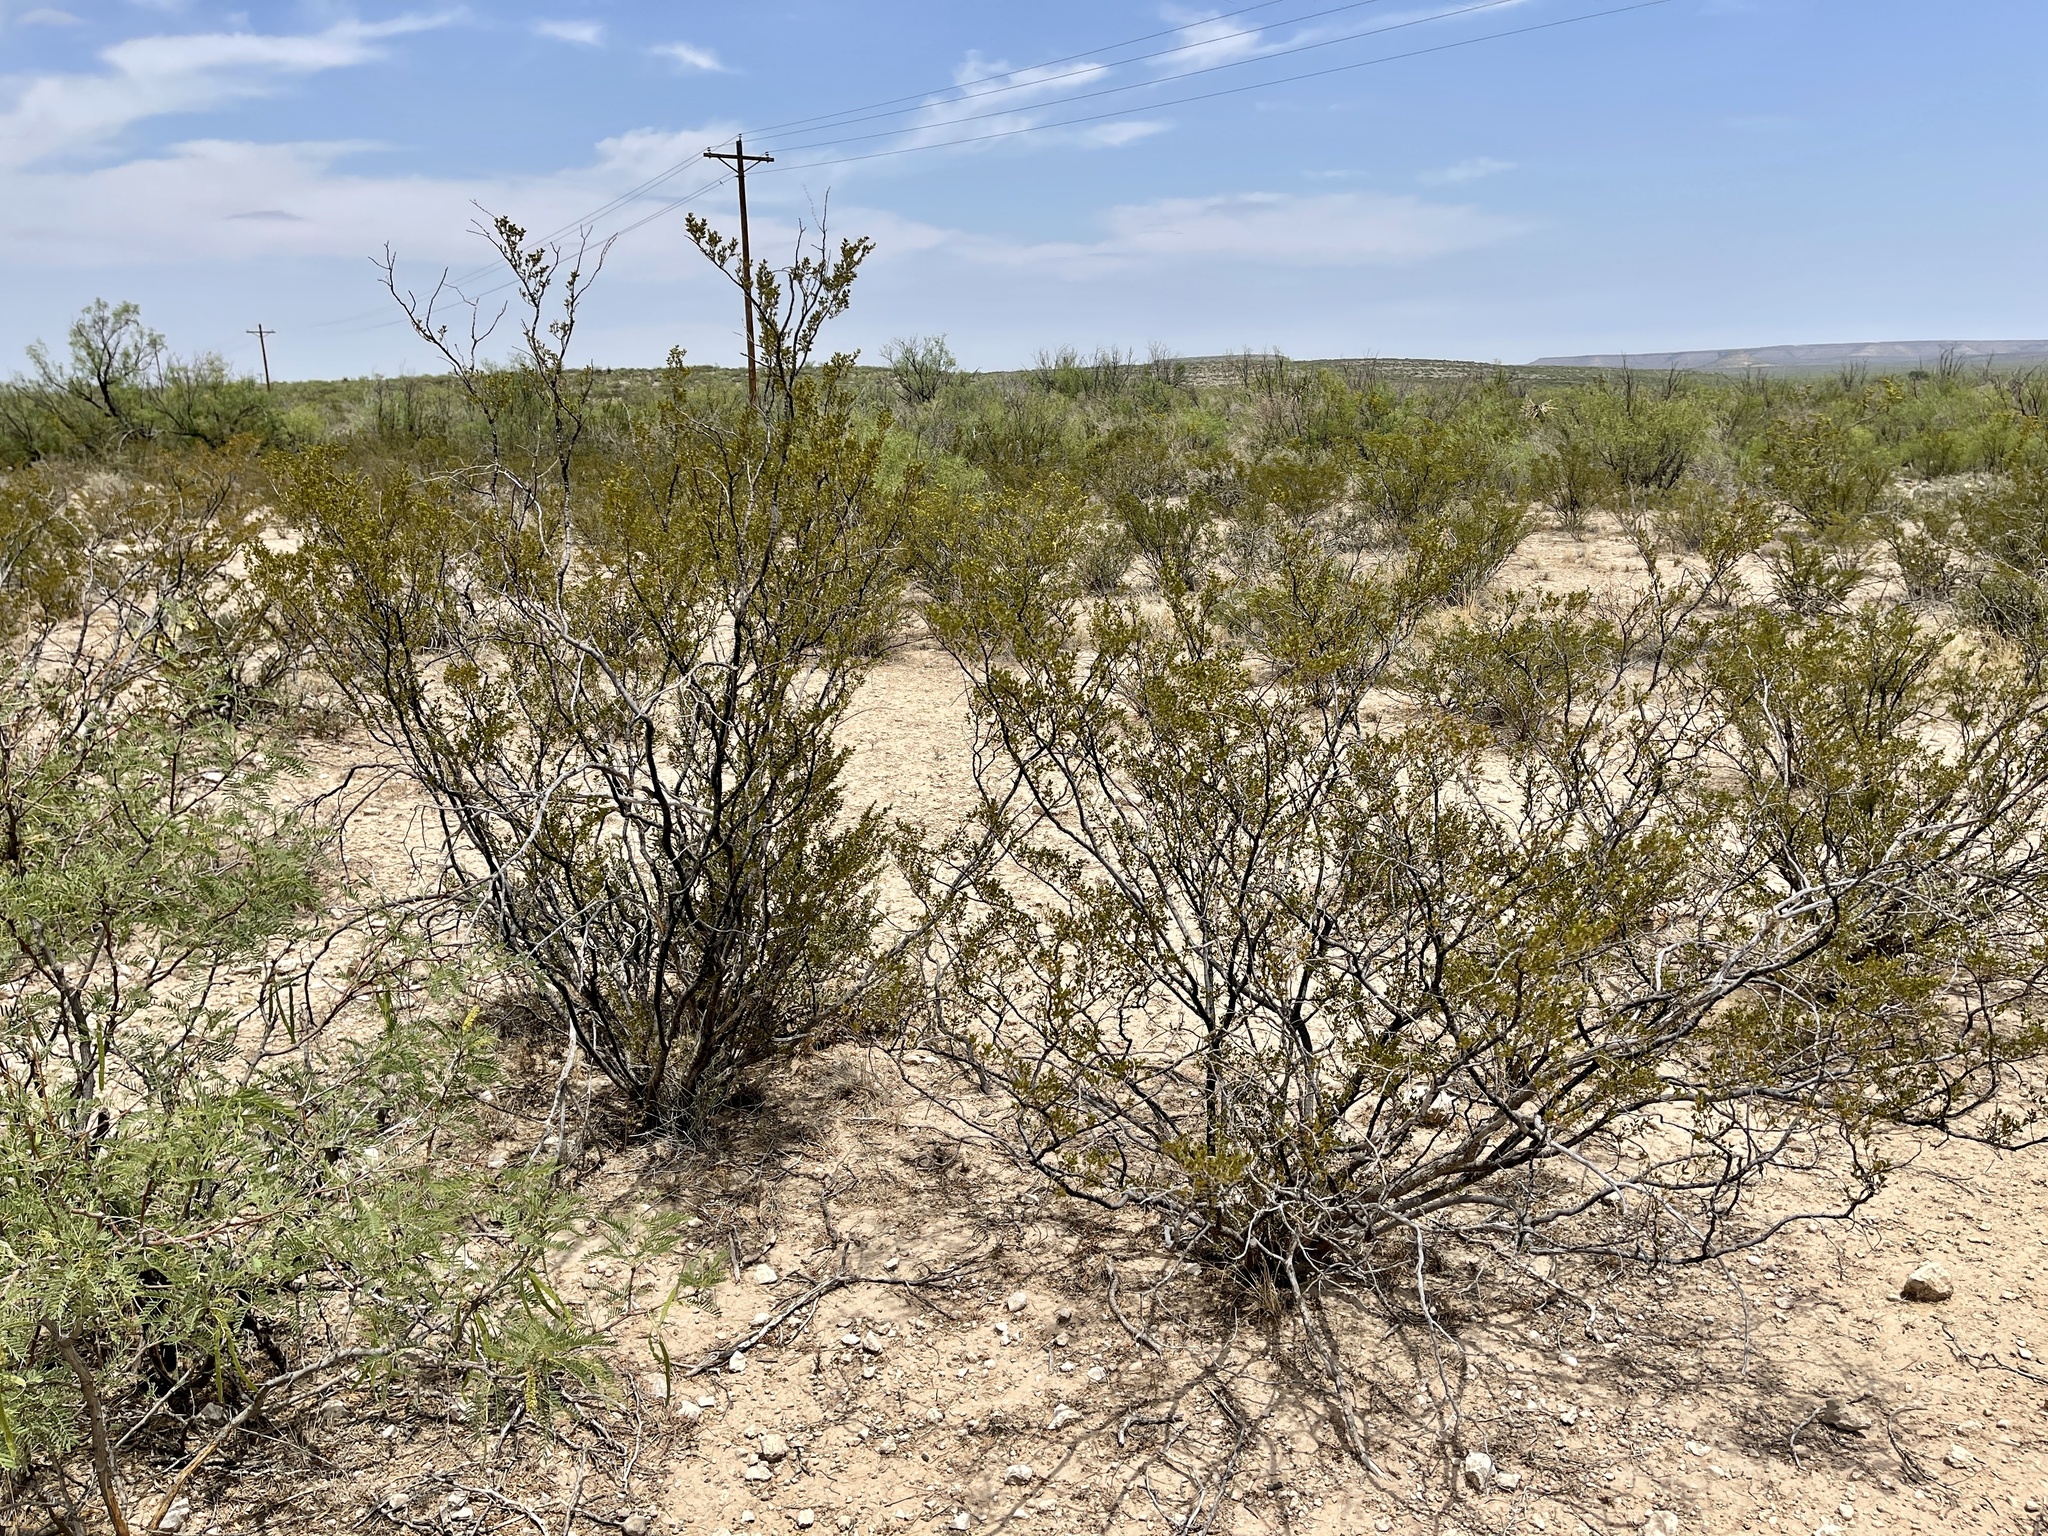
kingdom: Plantae
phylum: Tracheophyta
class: Magnoliopsida
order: Zygophyllales
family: Zygophyllaceae
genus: Larrea
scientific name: Larrea tridentata
